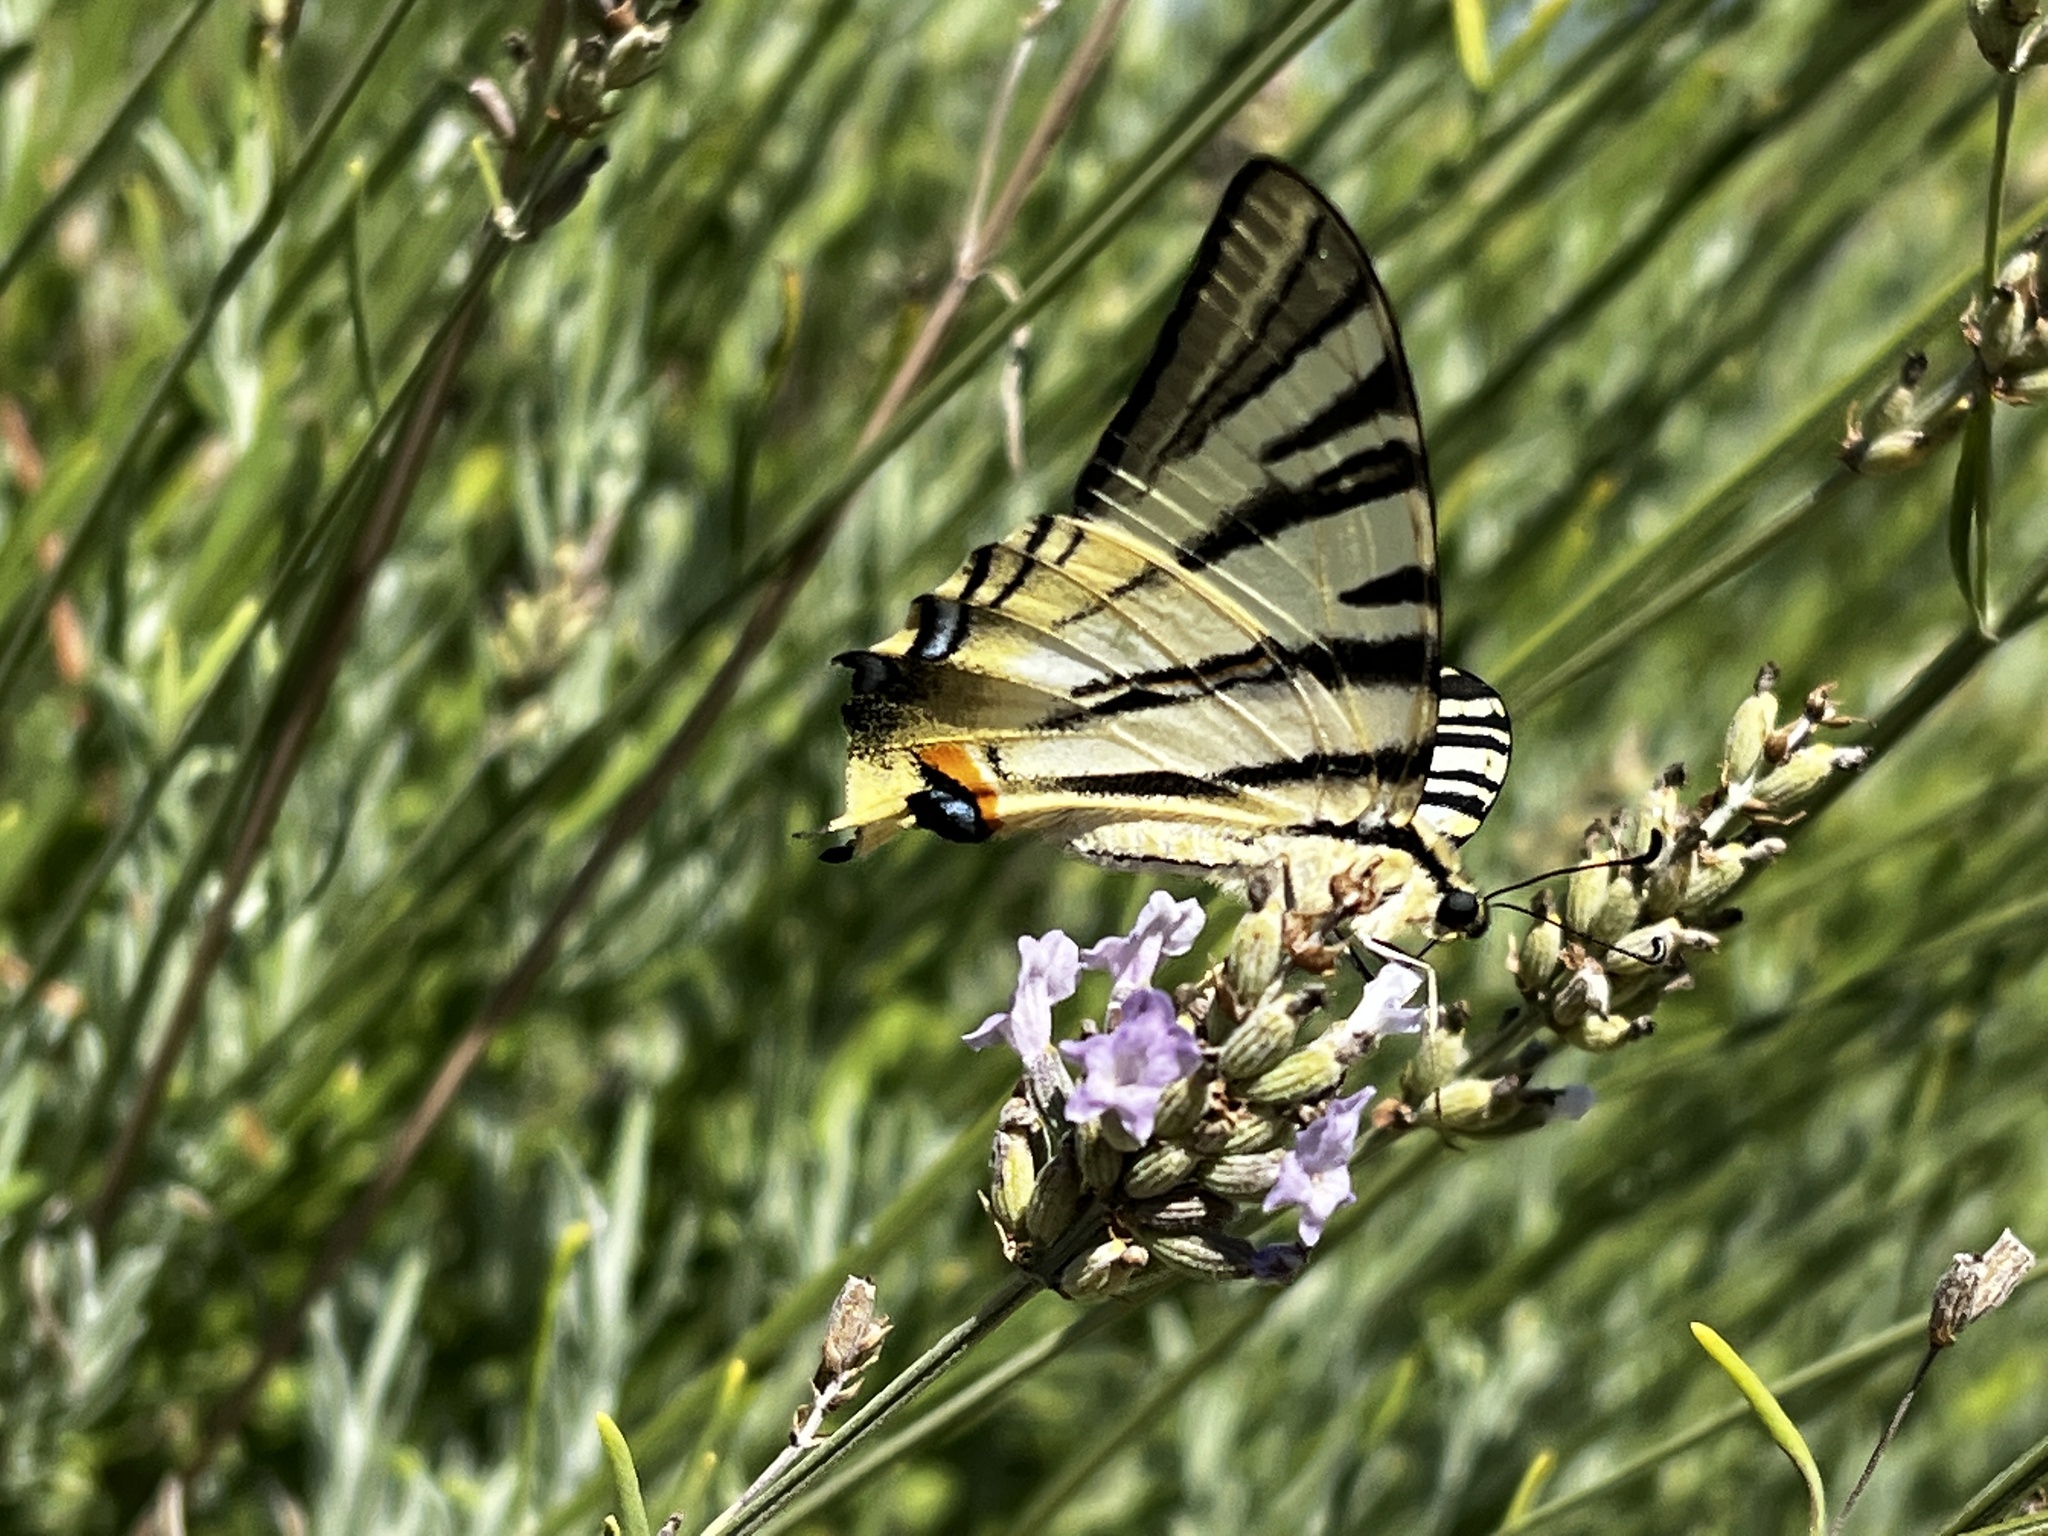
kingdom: Animalia
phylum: Arthropoda
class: Insecta
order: Lepidoptera
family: Papilionidae
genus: Iphiclides
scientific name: Iphiclides podalirius
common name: Scarce swallowtail
